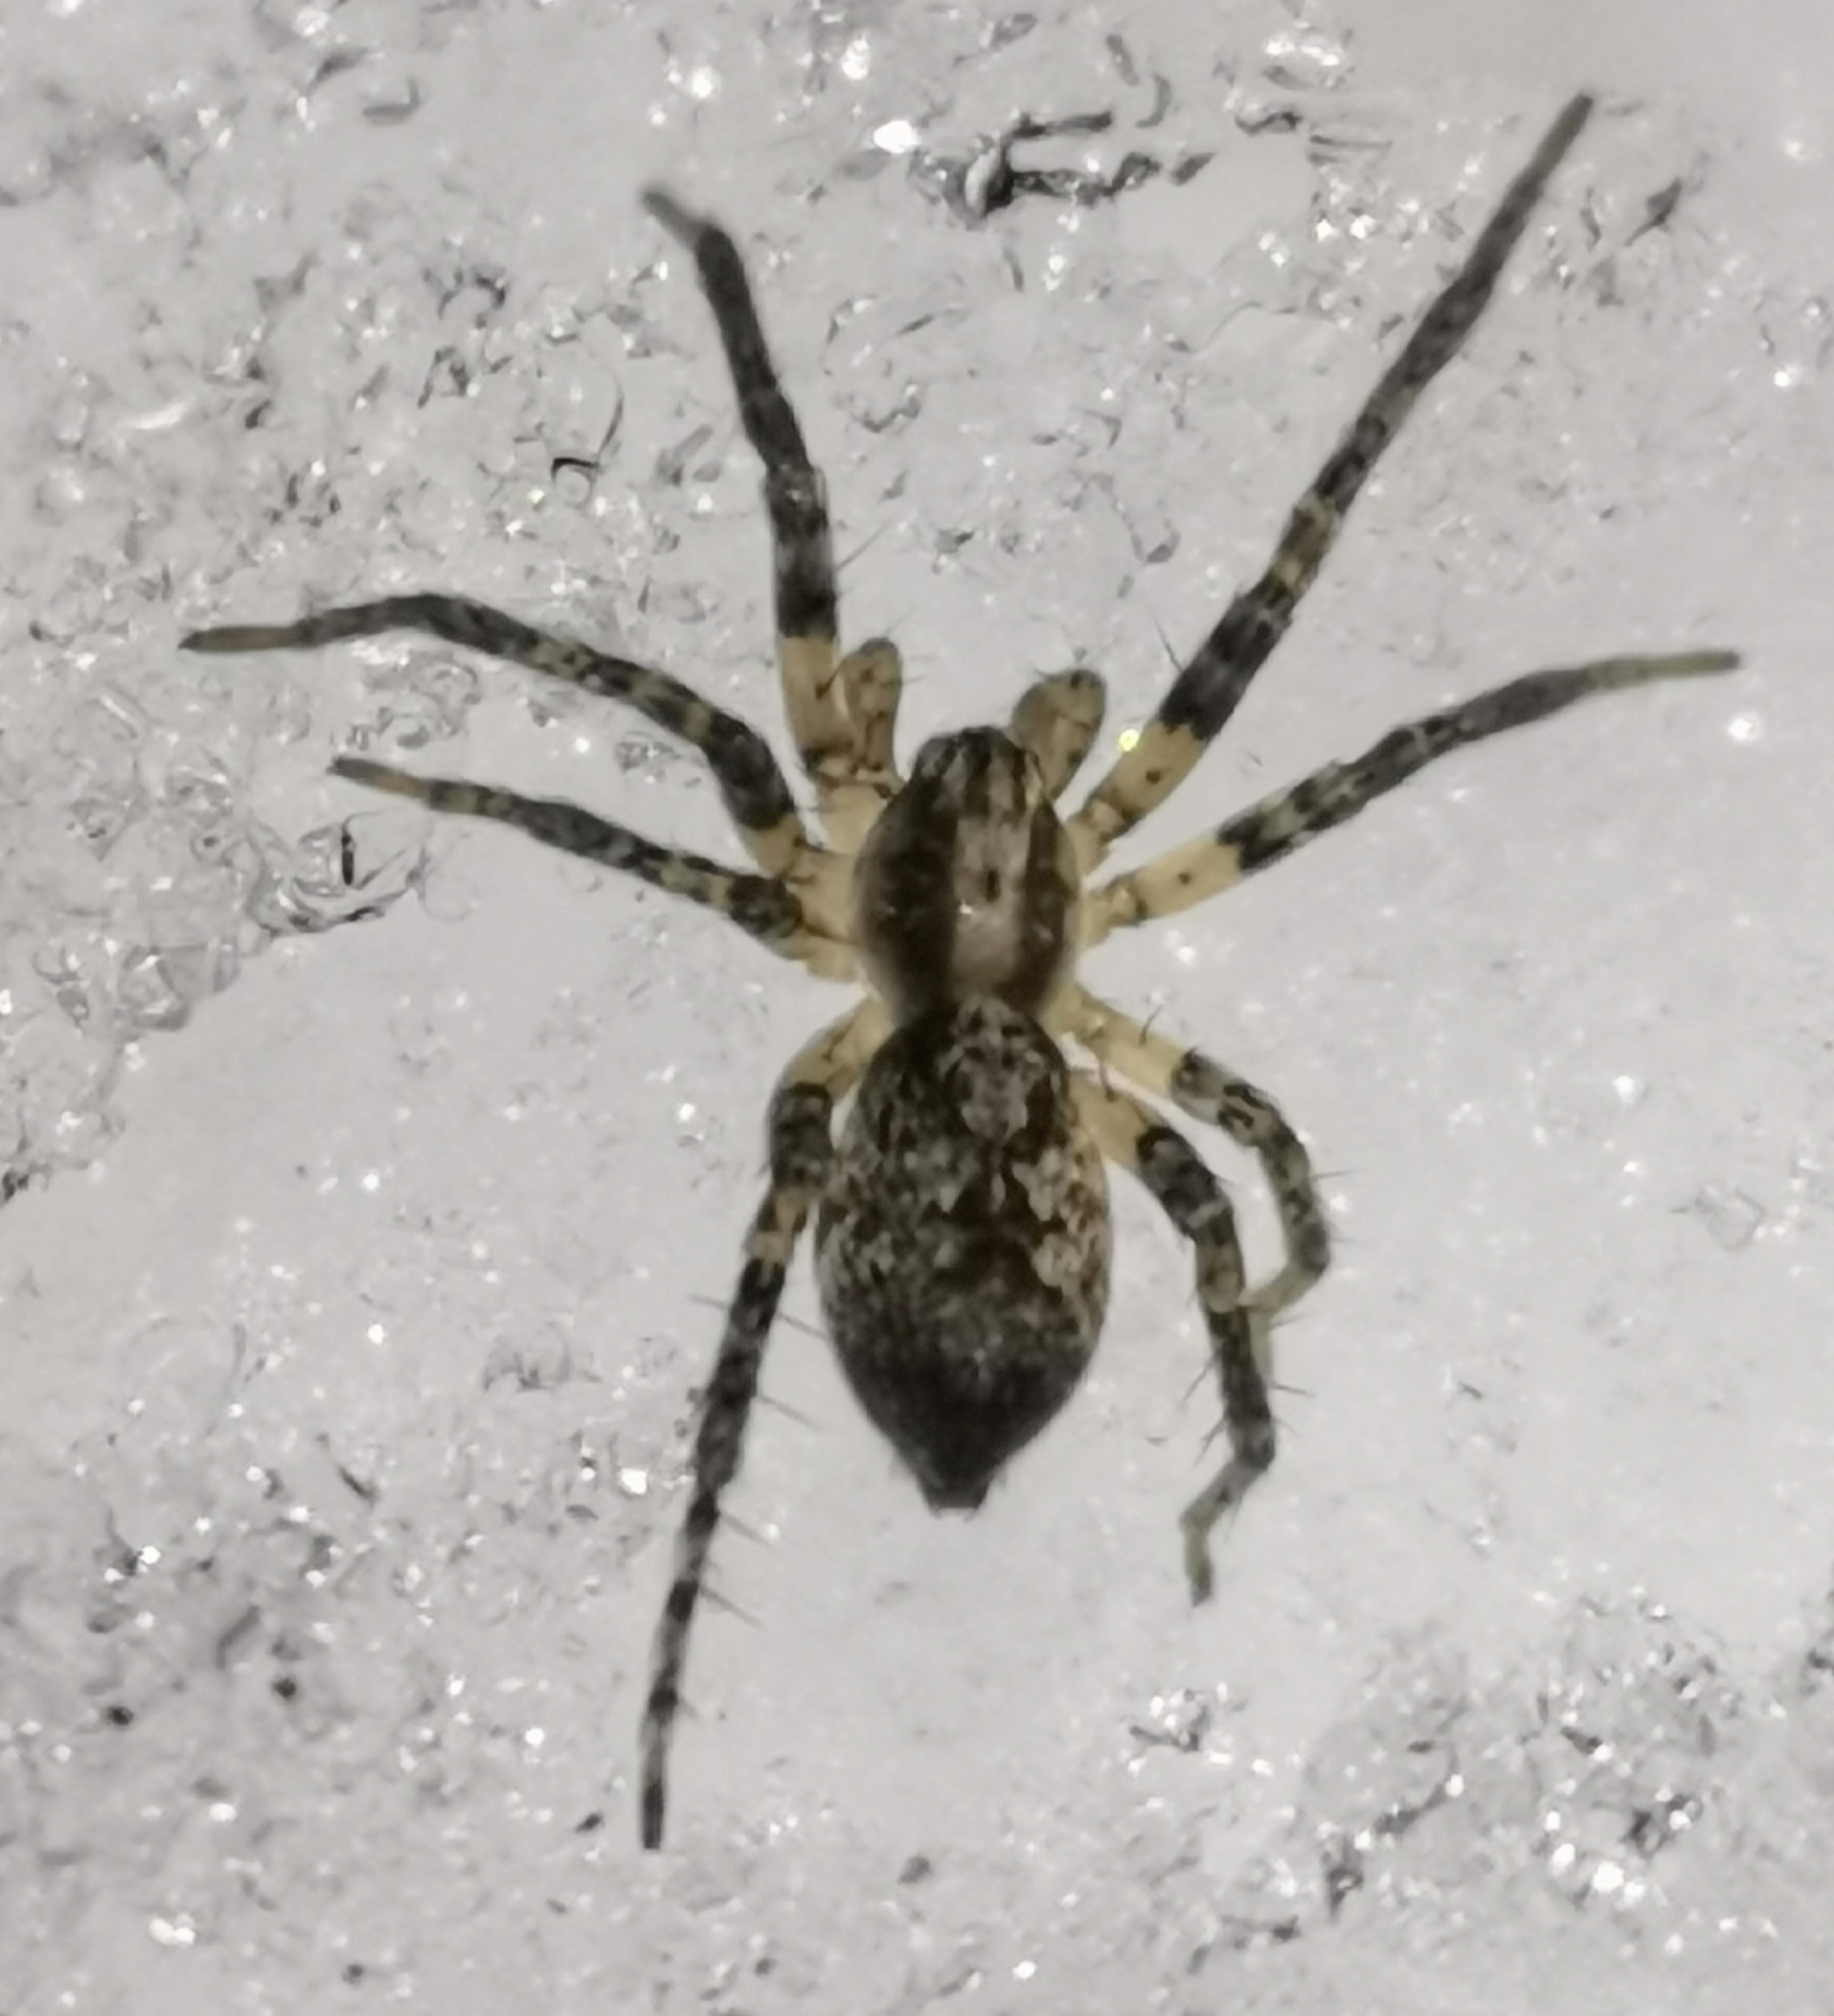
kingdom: Animalia
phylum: Arthropoda
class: Arachnida
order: Araneae
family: Anyphaenidae
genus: Anyphaena
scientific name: Anyphaena accentuata
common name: Buzzing spider
